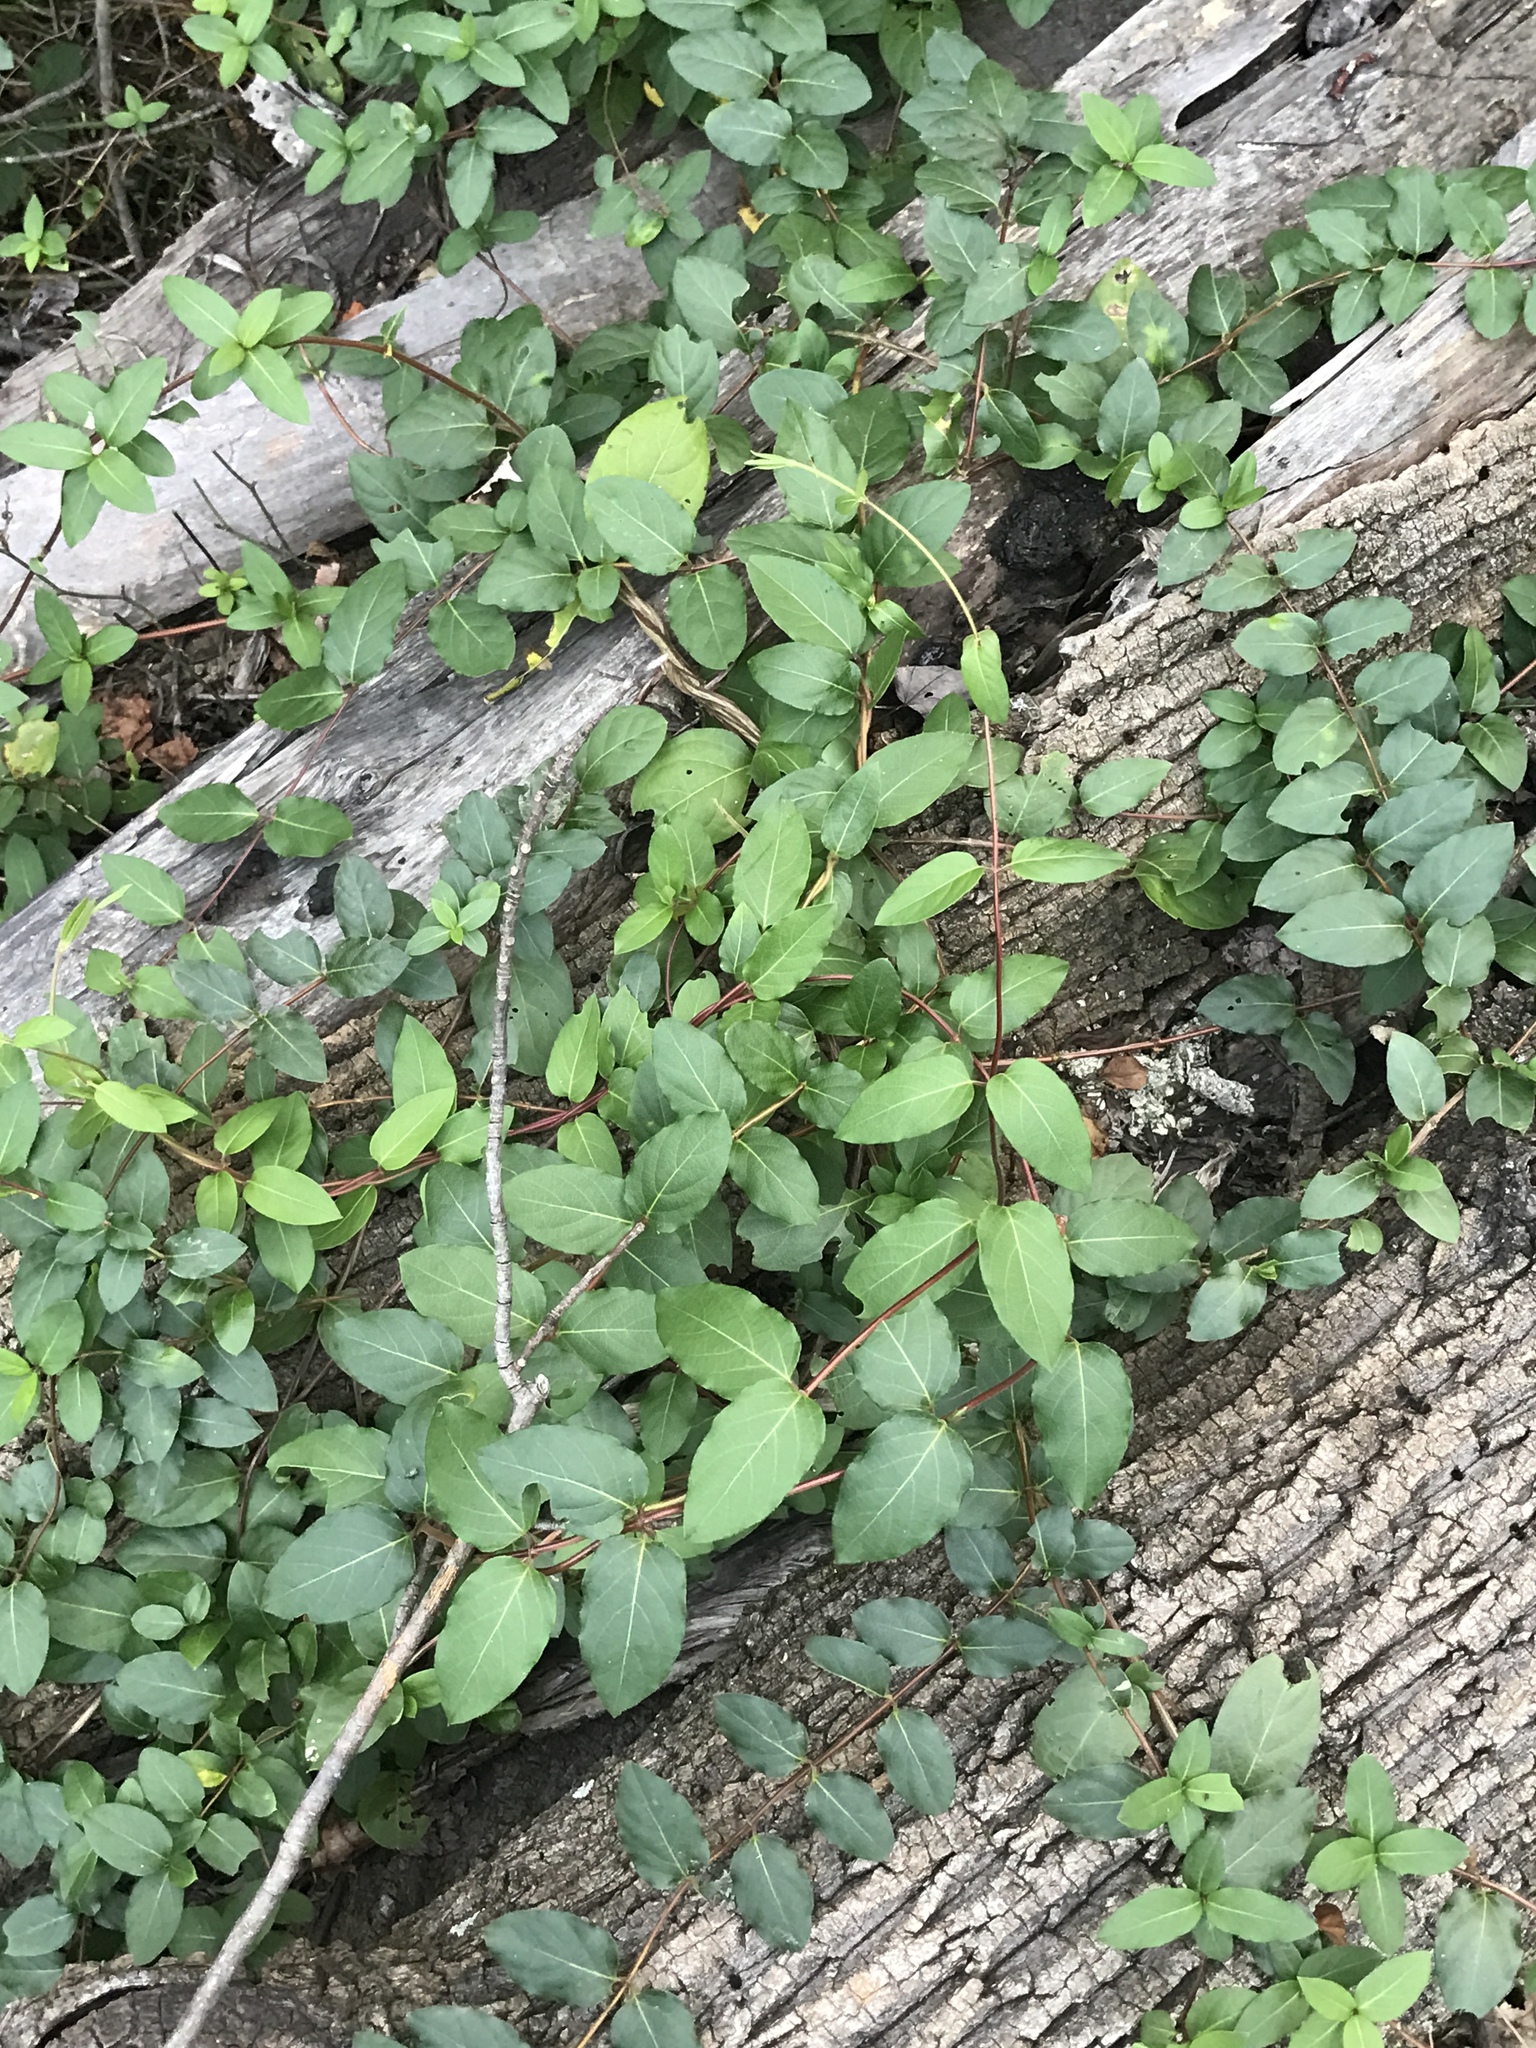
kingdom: Plantae
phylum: Tracheophyta
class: Magnoliopsida
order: Dipsacales
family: Caprifoliaceae
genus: Lonicera
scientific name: Lonicera japonica
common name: Japanese honeysuckle
